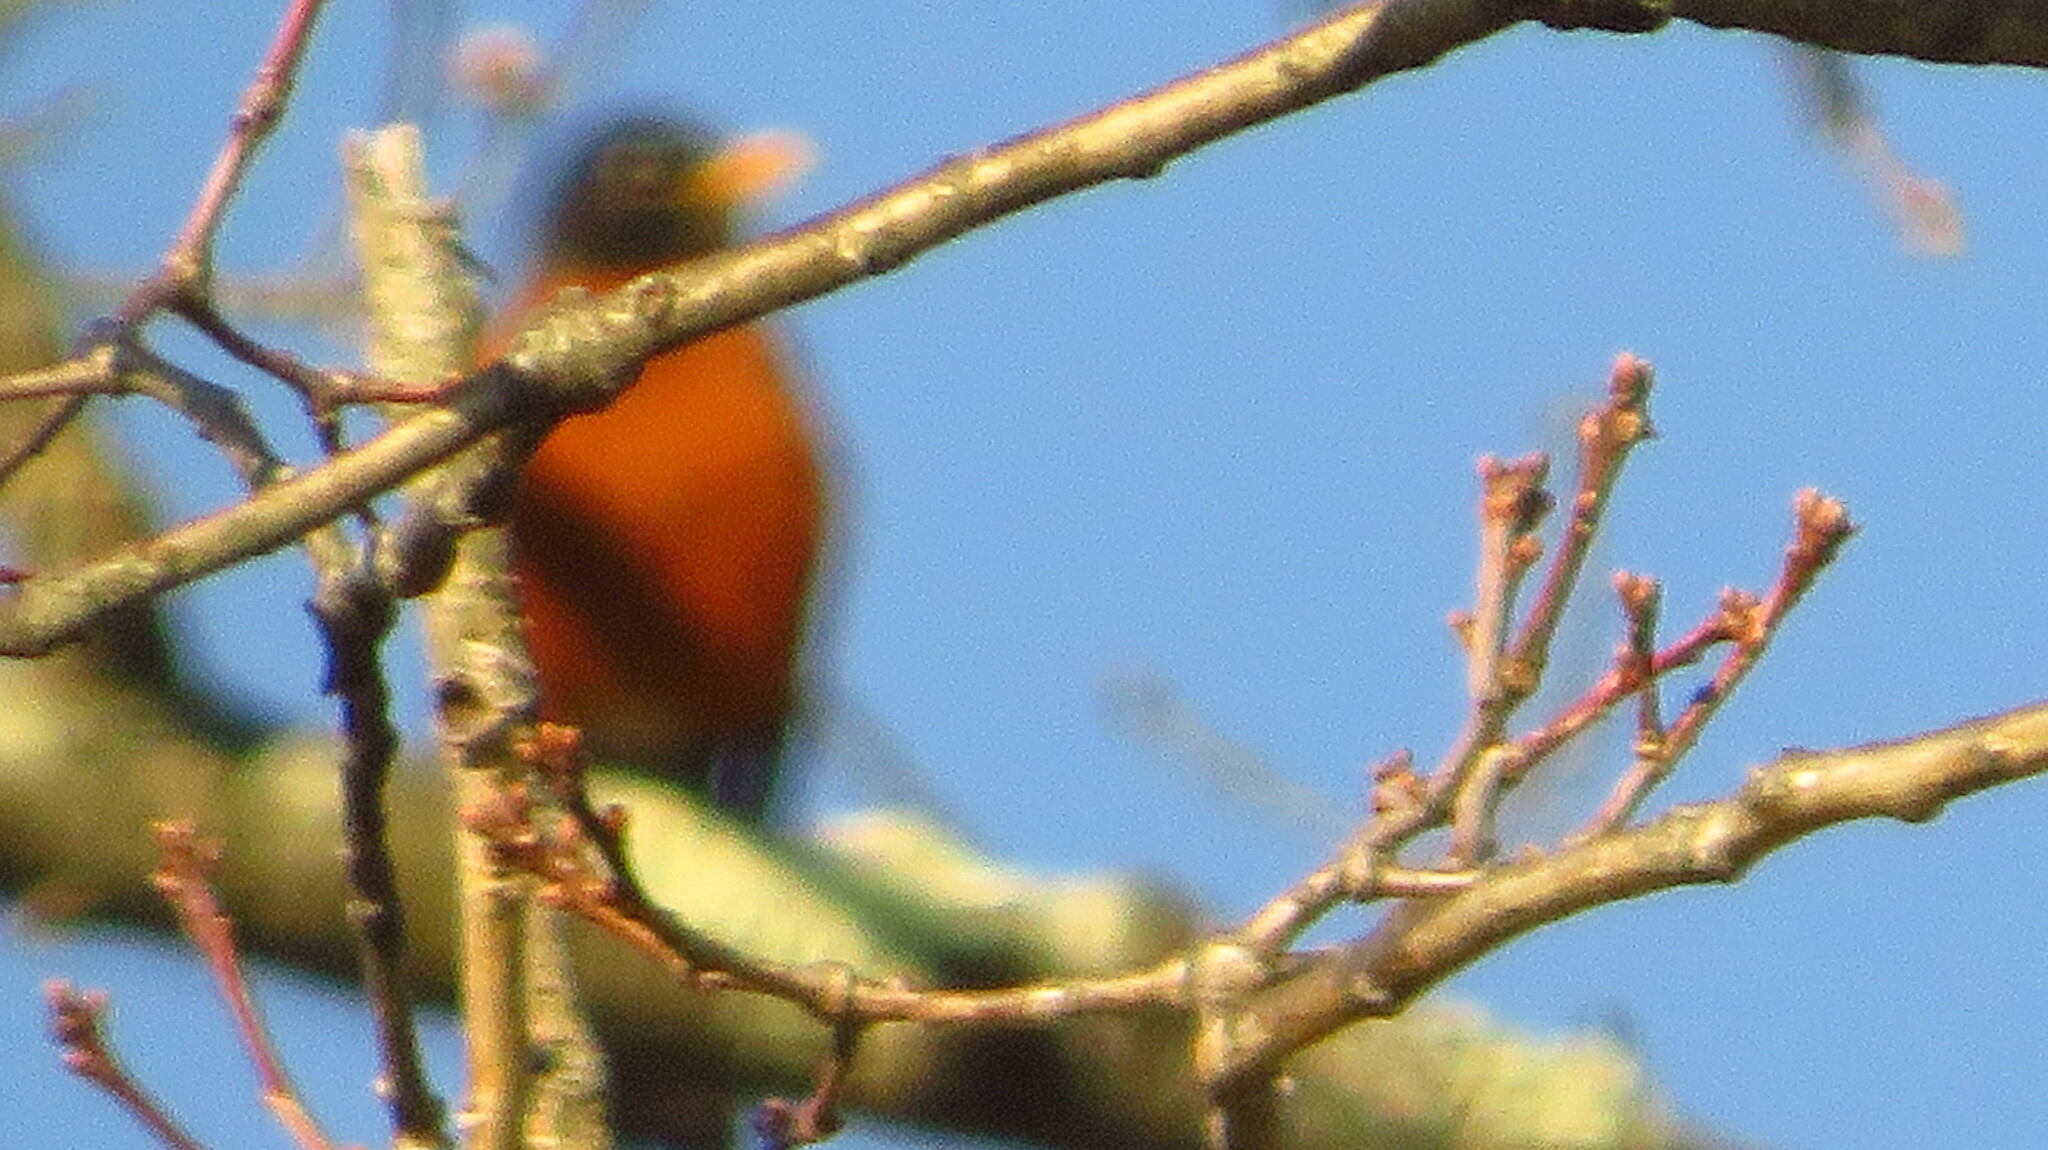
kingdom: Animalia
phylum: Chordata
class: Aves
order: Passeriformes
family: Turdidae
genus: Turdus
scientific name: Turdus migratorius
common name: American robin
